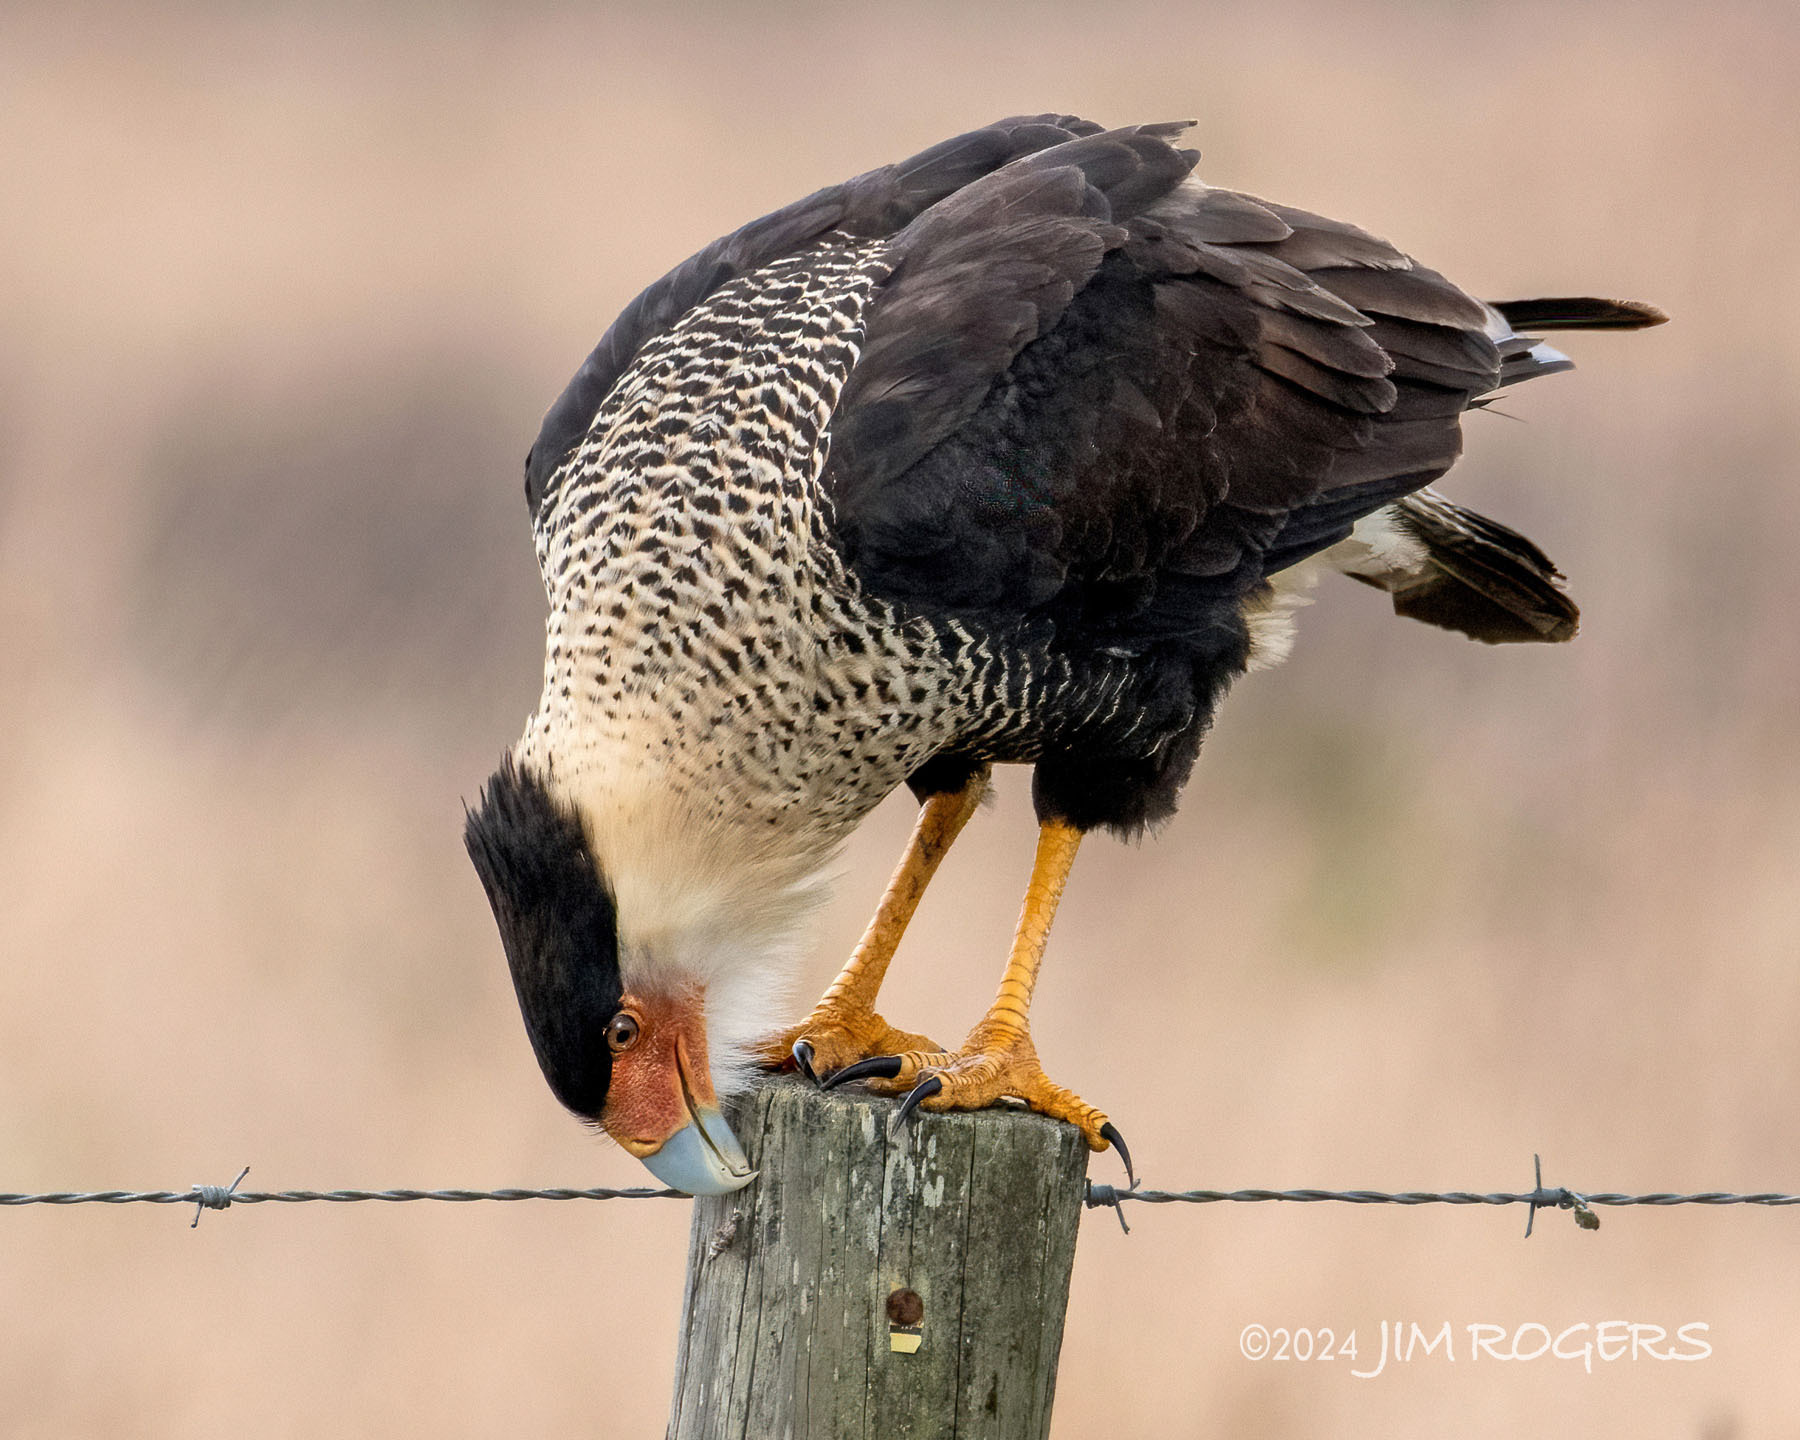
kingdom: Animalia
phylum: Chordata
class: Aves
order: Falconiformes
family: Falconidae
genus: Caracara
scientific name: Caracara plancus
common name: Southern caracara
